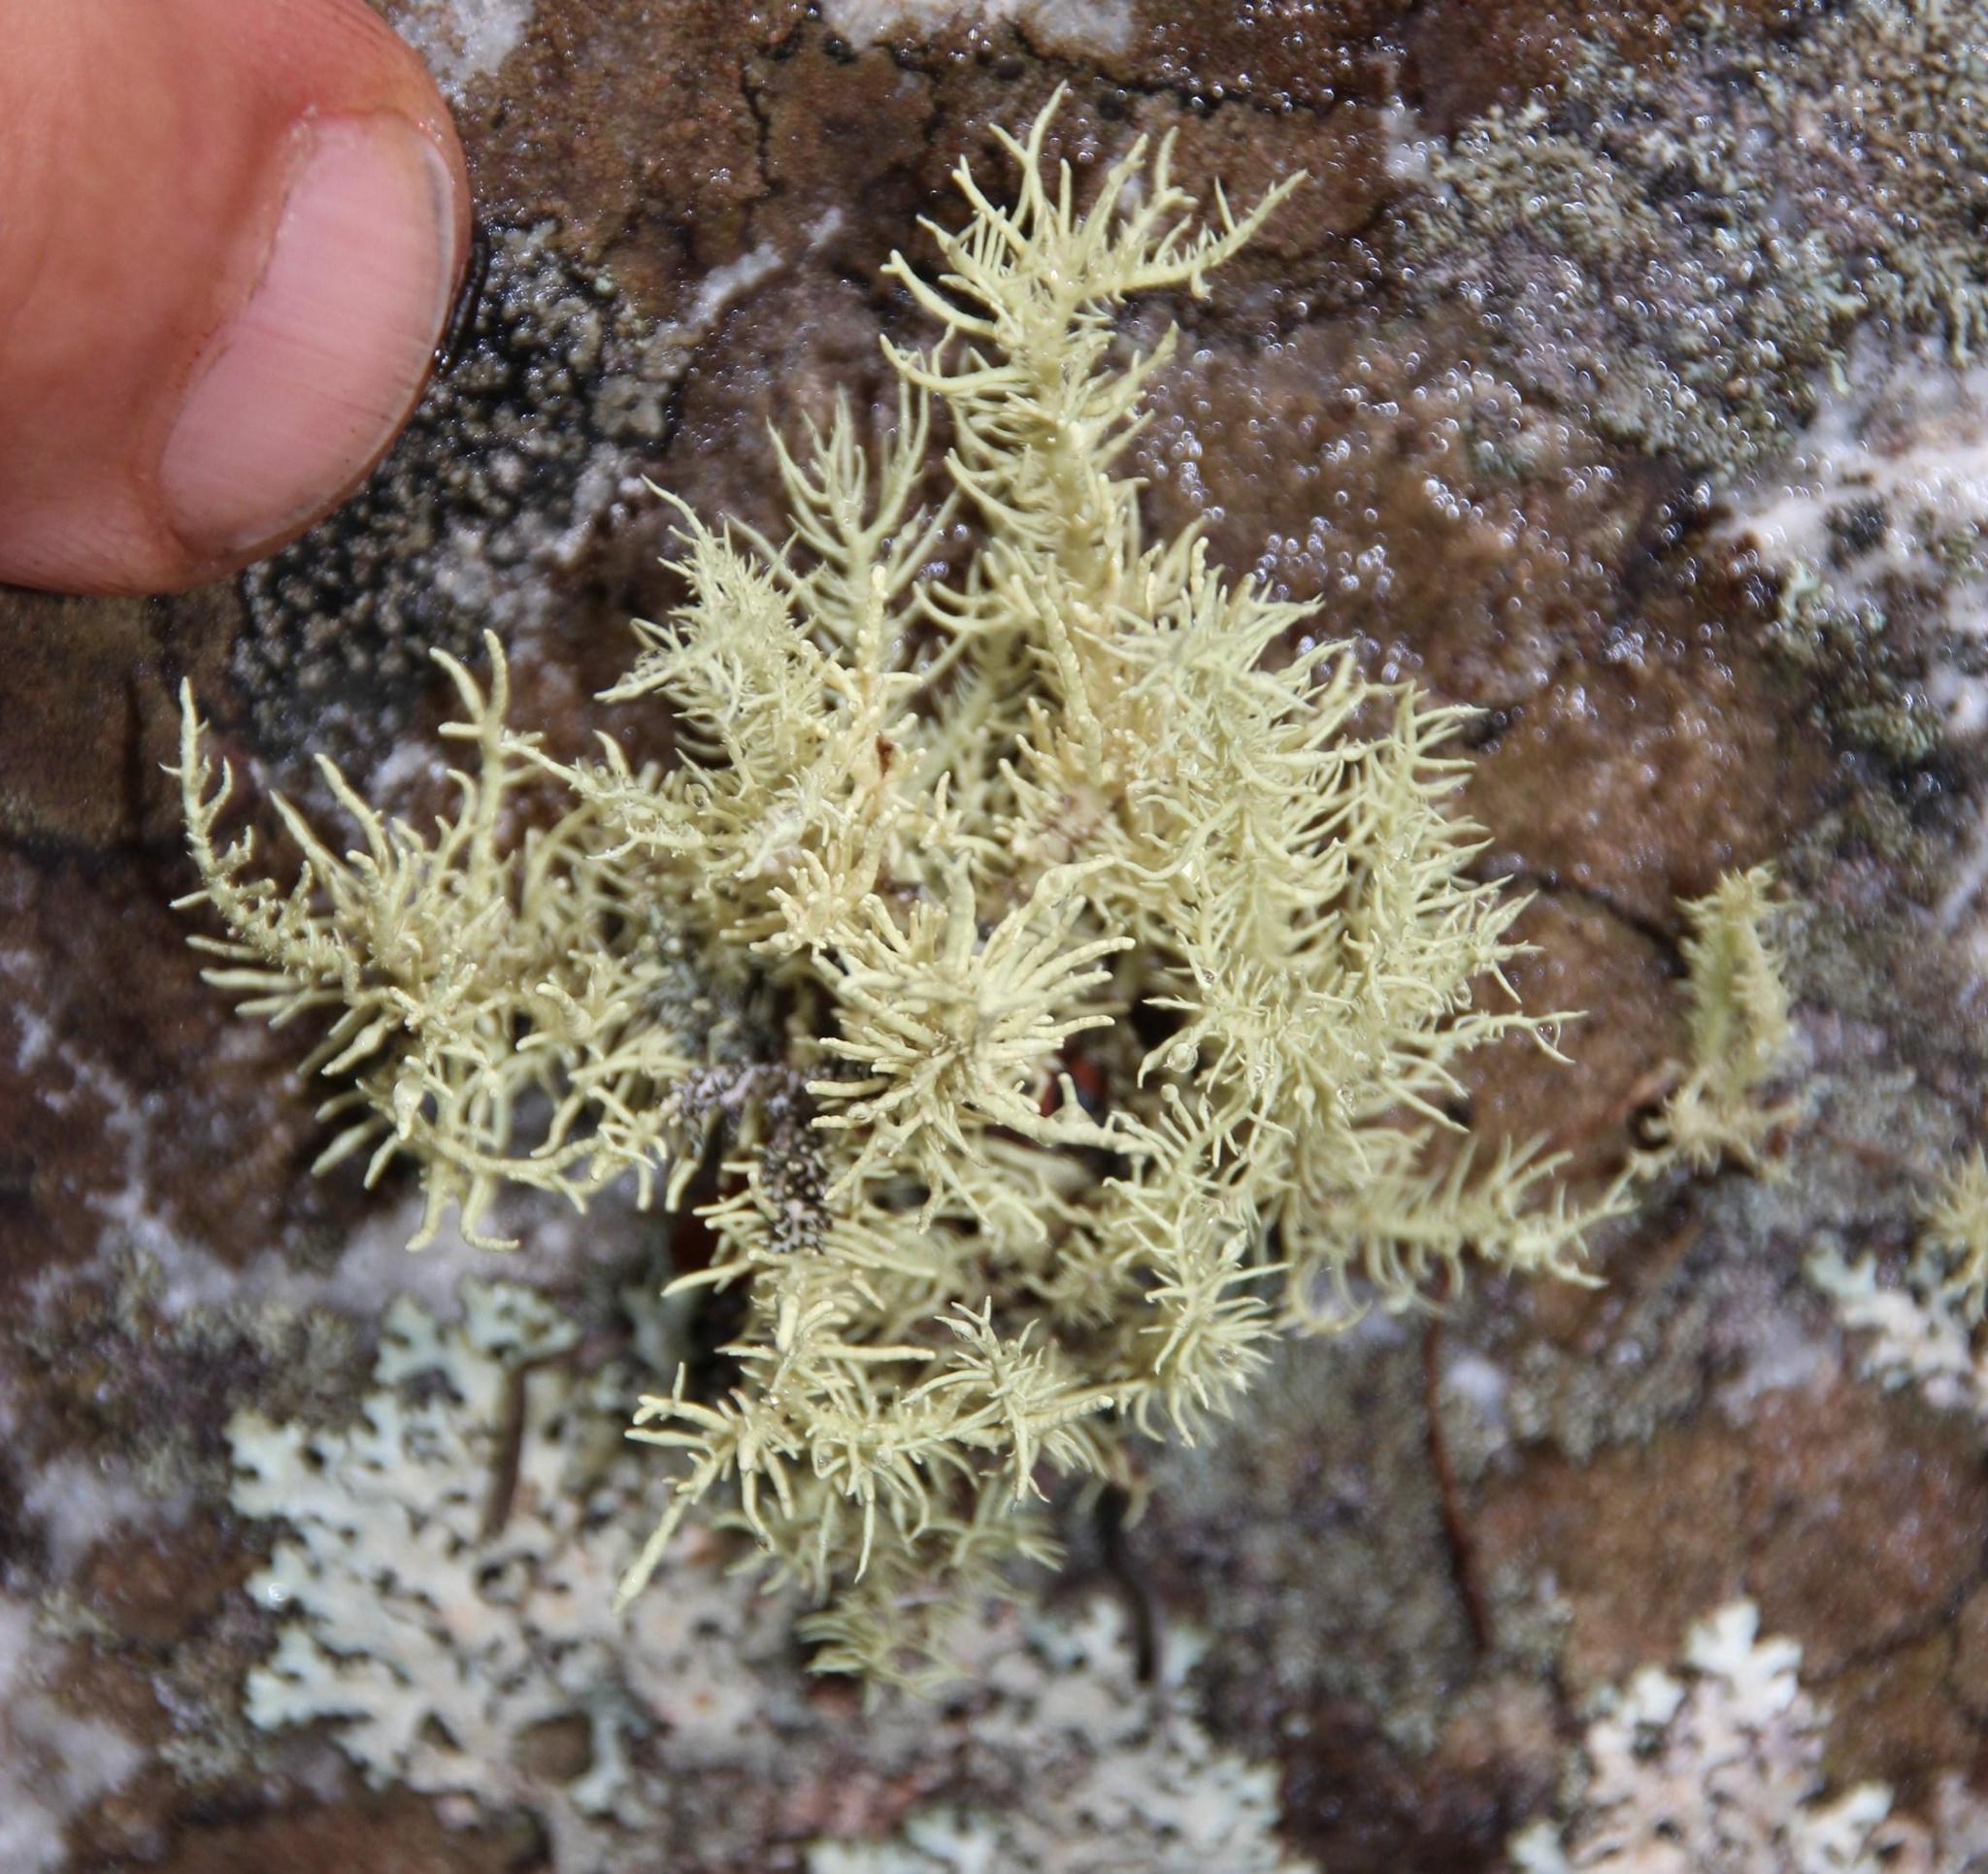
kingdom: Fungi
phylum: Ascomycota
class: Lecanoromycetes
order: Lecanorales
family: Parmeliaceae
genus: Usnea
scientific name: Usnea pulvinata
